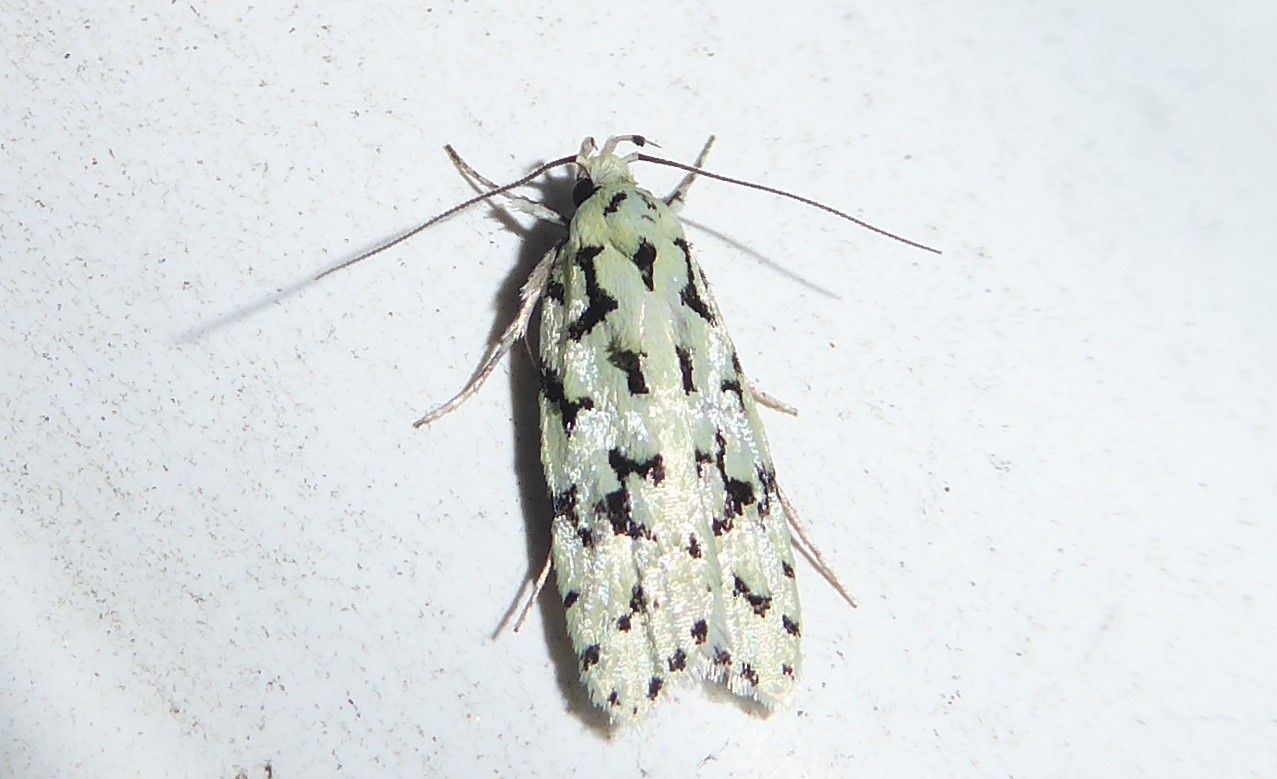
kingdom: Animalia
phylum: Arthropoda
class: Insecta
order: Lepidoptera
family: Oecophoridae
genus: Izatha
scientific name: Izatha huttoni
